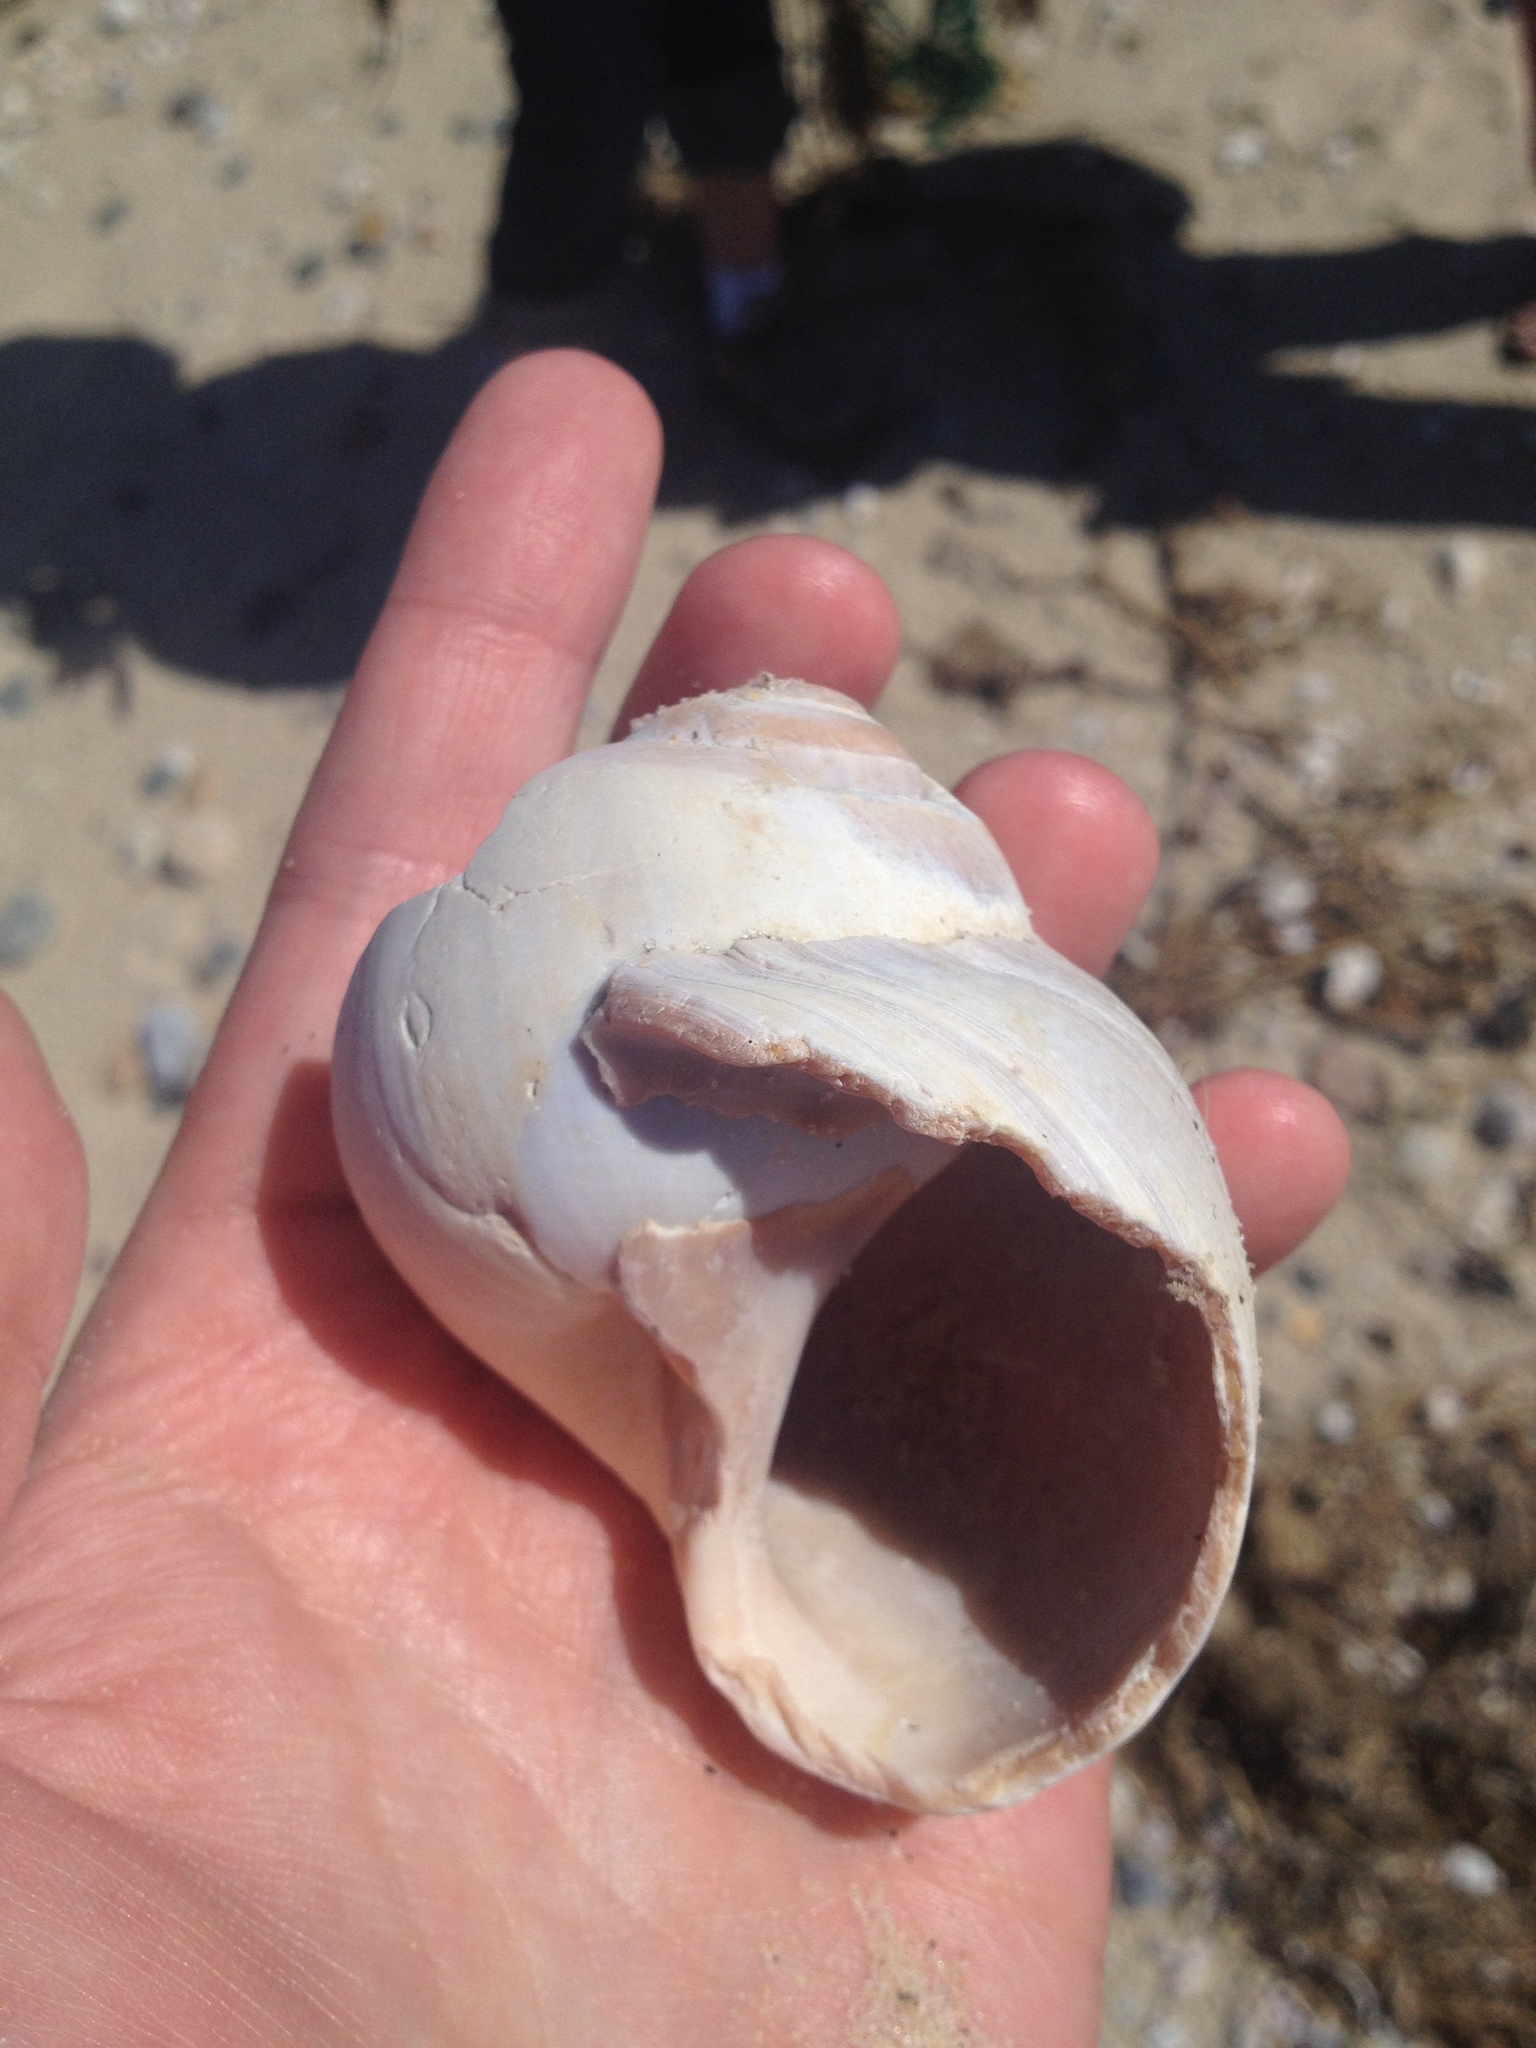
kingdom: Animalia
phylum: Mollusca
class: Gastropoda
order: Littorinimorpha
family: Naticidae
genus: Euspira
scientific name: Euspira heros
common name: Common northern moonsnail
